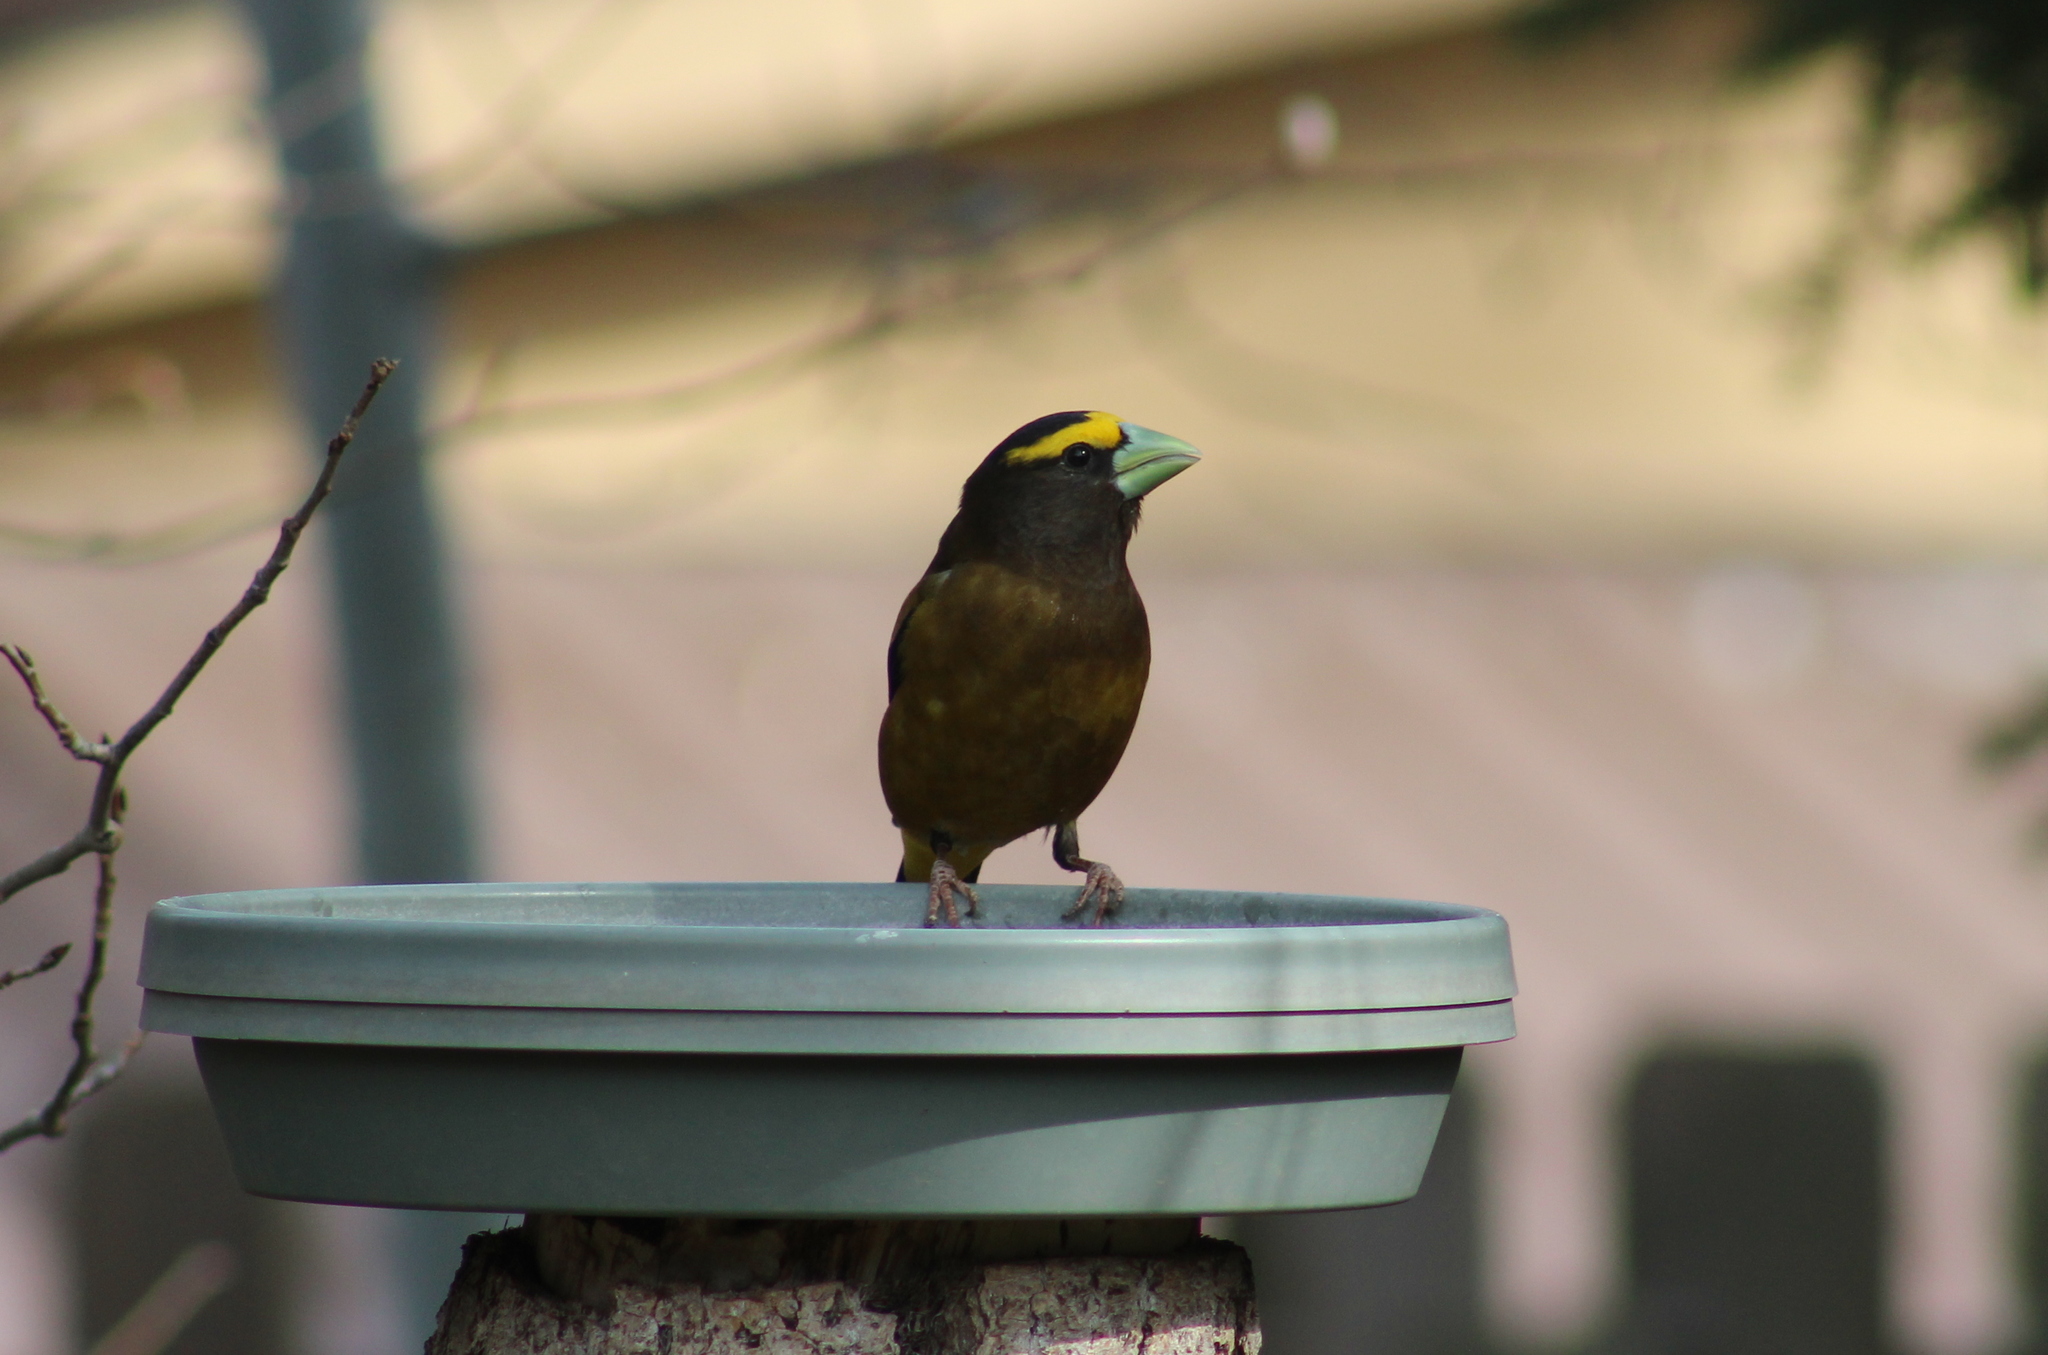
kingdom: Animalia
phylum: Chordata
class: Aves
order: Passeriformes
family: Fringillidae
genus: Hesperiphona
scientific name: Hesperiphona vespertina
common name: Evening grosbeak
